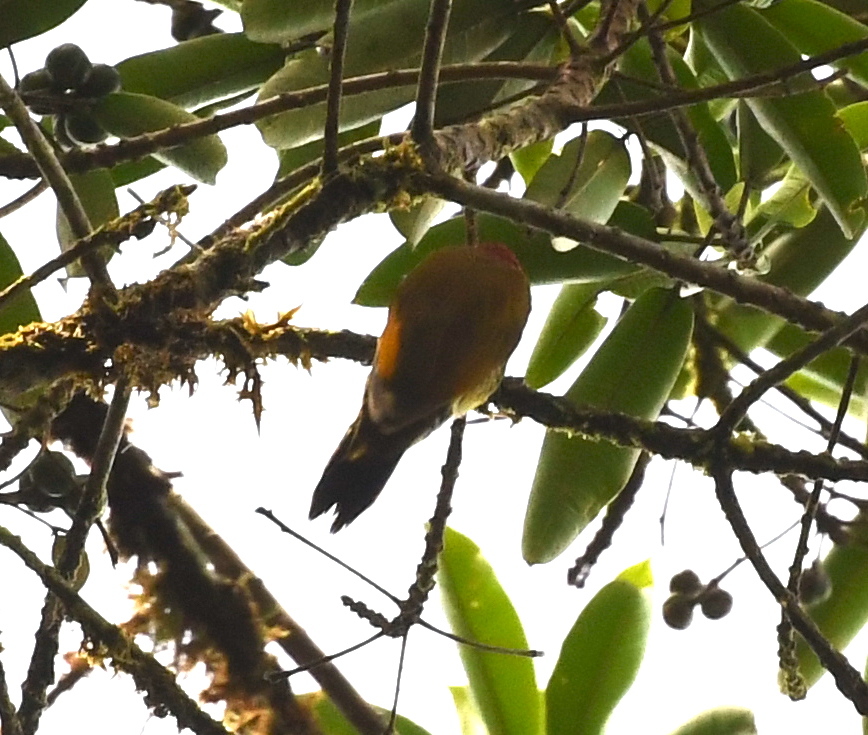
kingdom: Animalia
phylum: Chordata
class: Aves
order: Piciformes
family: Picidae
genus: Colaptes
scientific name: Colaptes rubiginosus
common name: Golden-olive woodpecker
